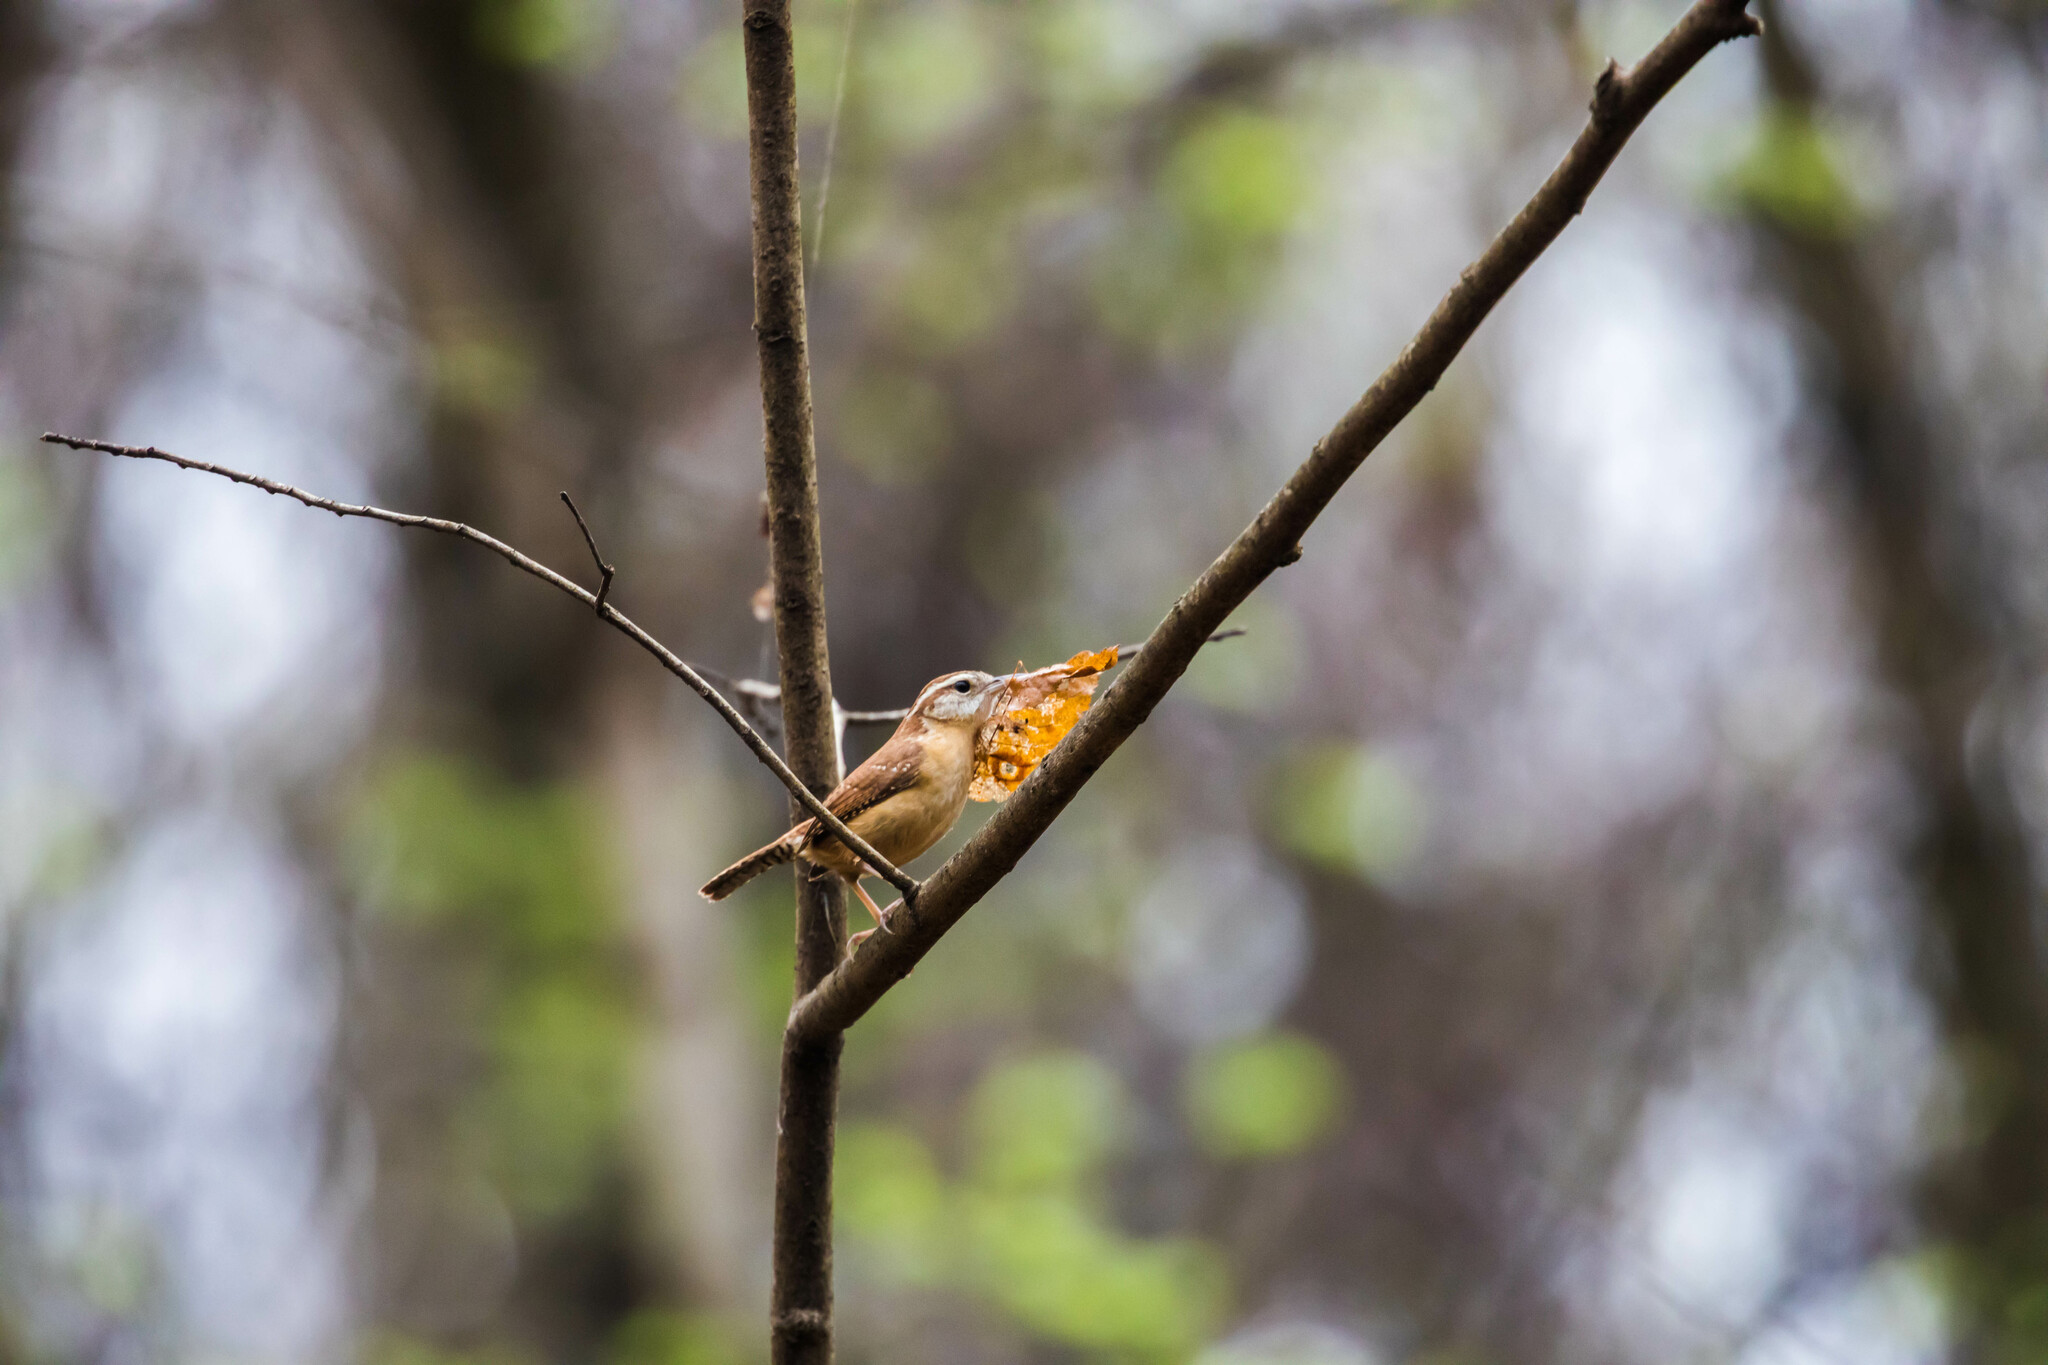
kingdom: Animalia
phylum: Chordata
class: Aves
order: Passeriformes
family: Troglodytidae
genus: Thryothorus
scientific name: Thryothorus ludovicianus
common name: Carolina wren
